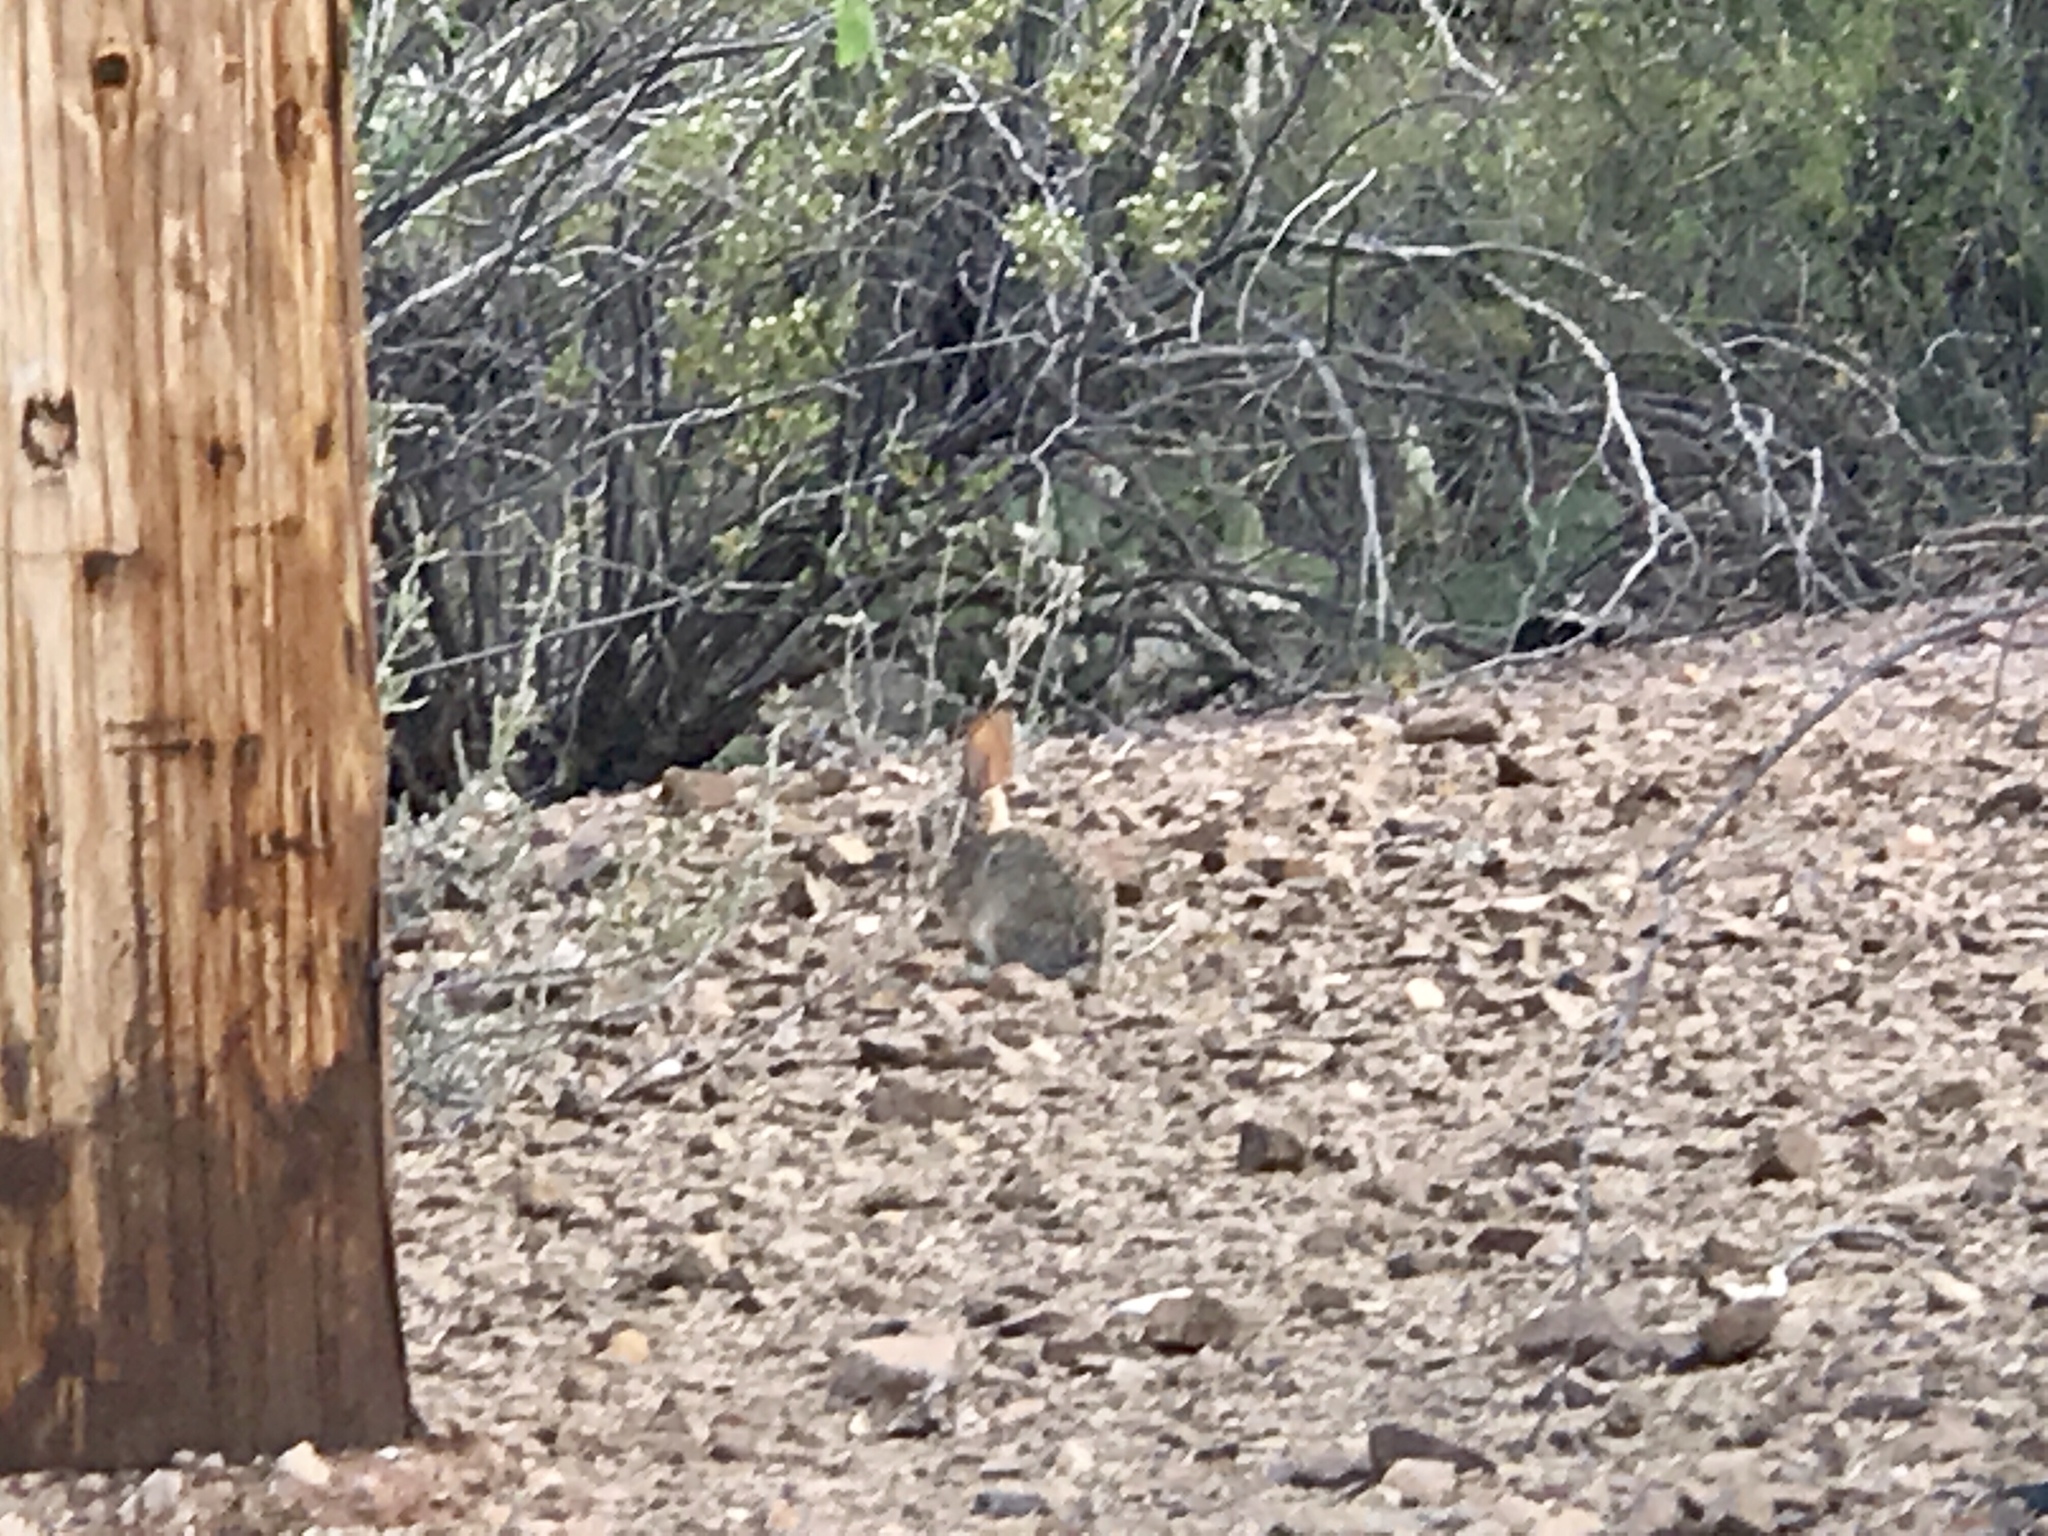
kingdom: Animalia
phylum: Chordata
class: Mammalia
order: Lagomorpha
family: Leporidae
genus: Sylvilagus
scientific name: Sylvilagus audubonii
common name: Desert cottontail
